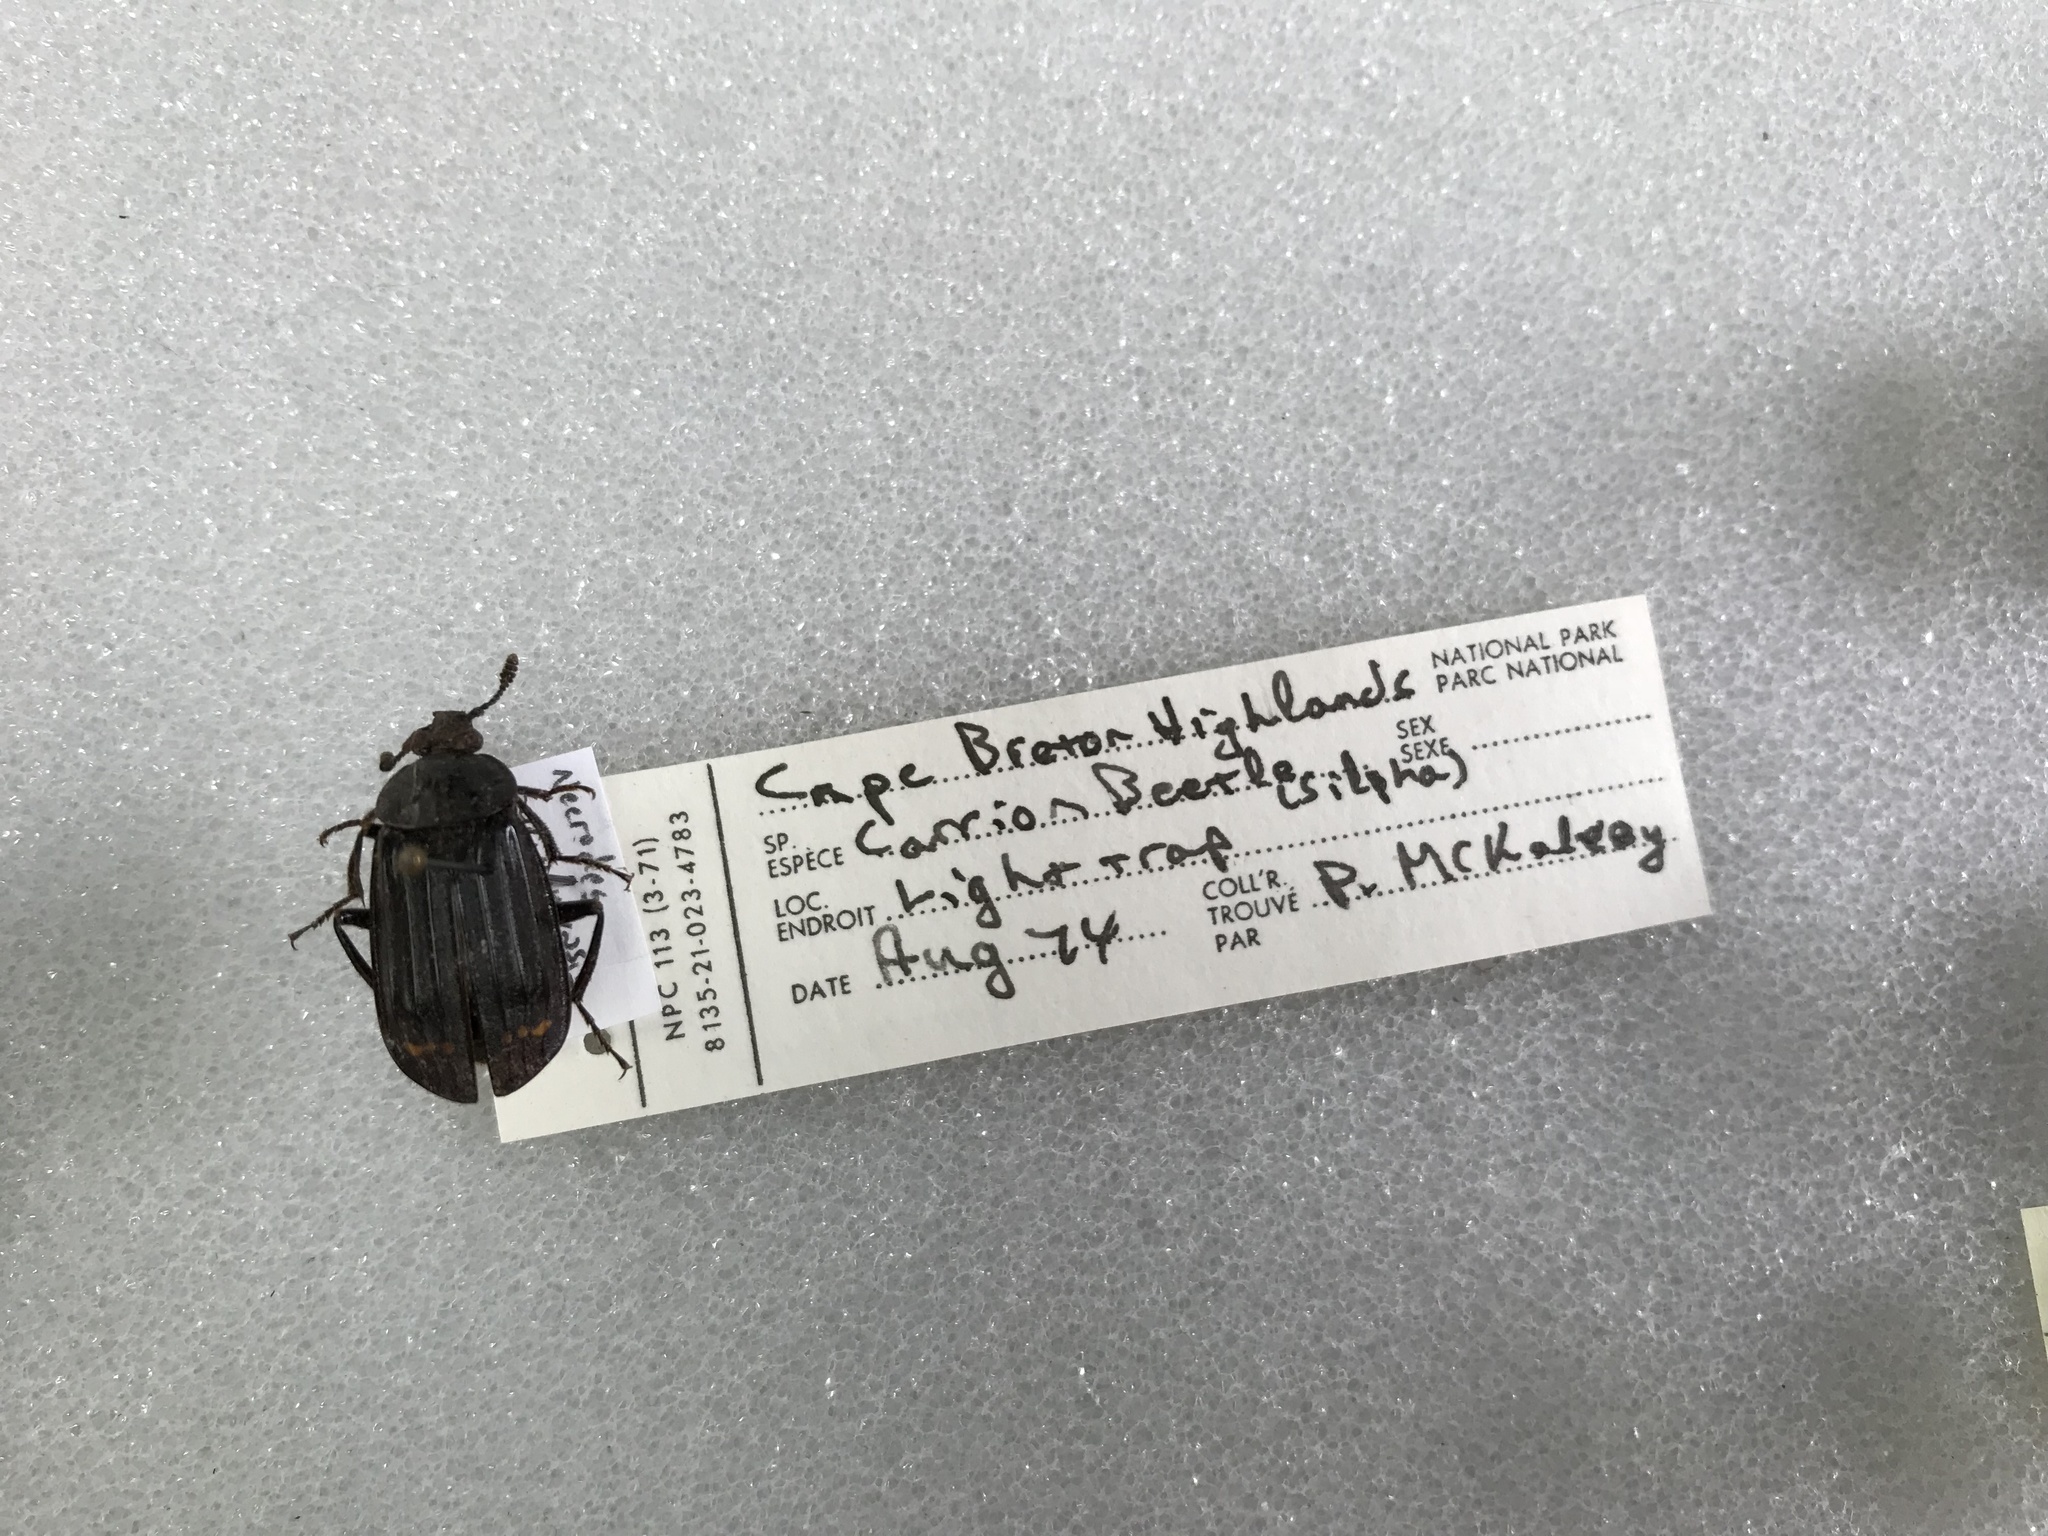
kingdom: Animalia
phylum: Arthropoda
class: Insecta
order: Coleoptera
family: Staphylinidae
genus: Necrodes
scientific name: Necrodes surinamensis
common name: Red-lined carrion beetle
